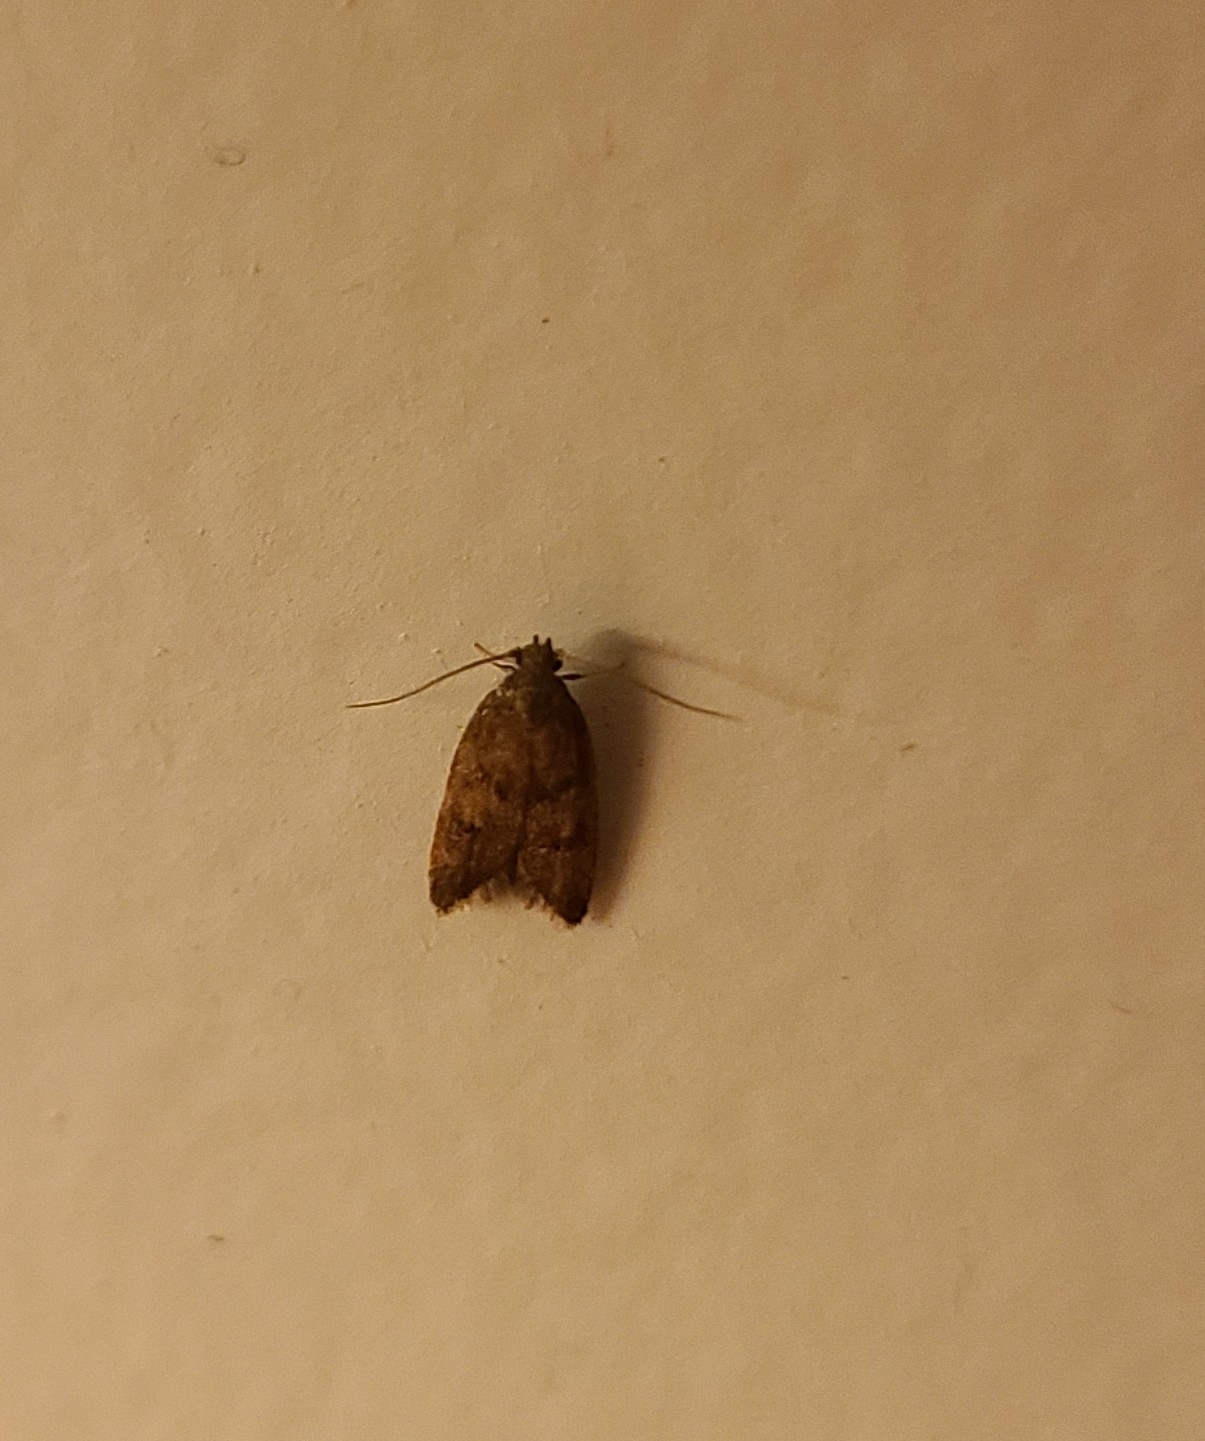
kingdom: Animalia
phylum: Arthropoda
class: Insecta
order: Lepidoptera
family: Oecophoridae
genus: Tachystola
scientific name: Tachystola acroxantha
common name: Ruddy streak
